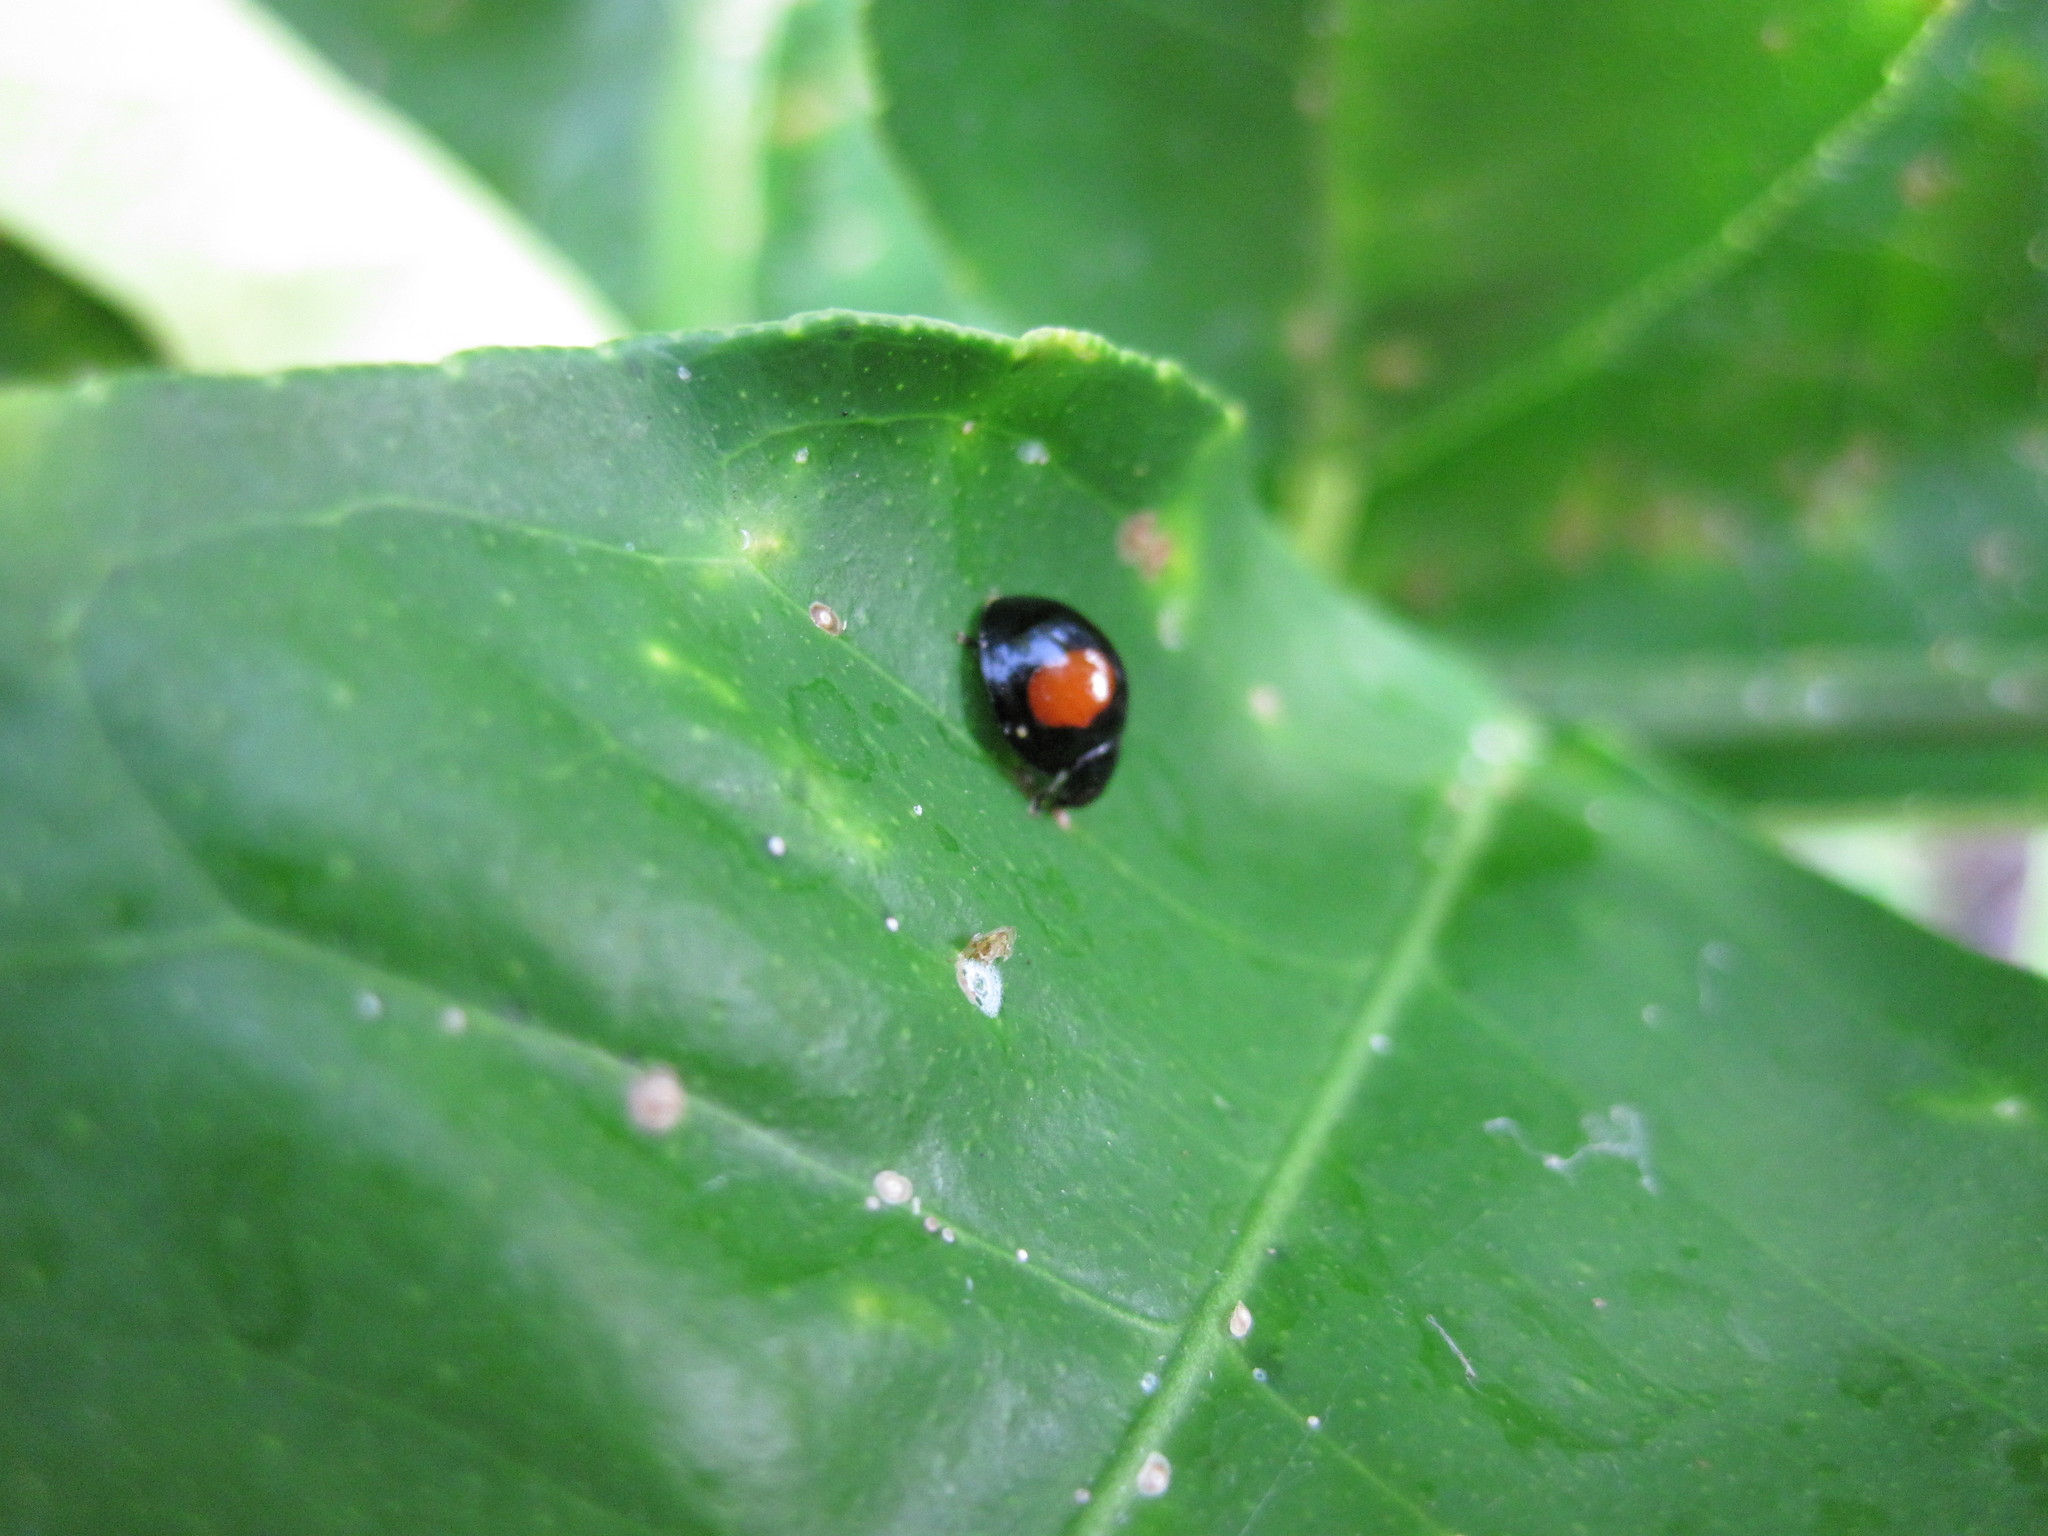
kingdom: Animalia
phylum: Arthropoda
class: Insecta
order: Coleoptera
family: Coccinellidae
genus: Chilocorus
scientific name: Chilocorus cacti
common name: Cactus lady beetle
